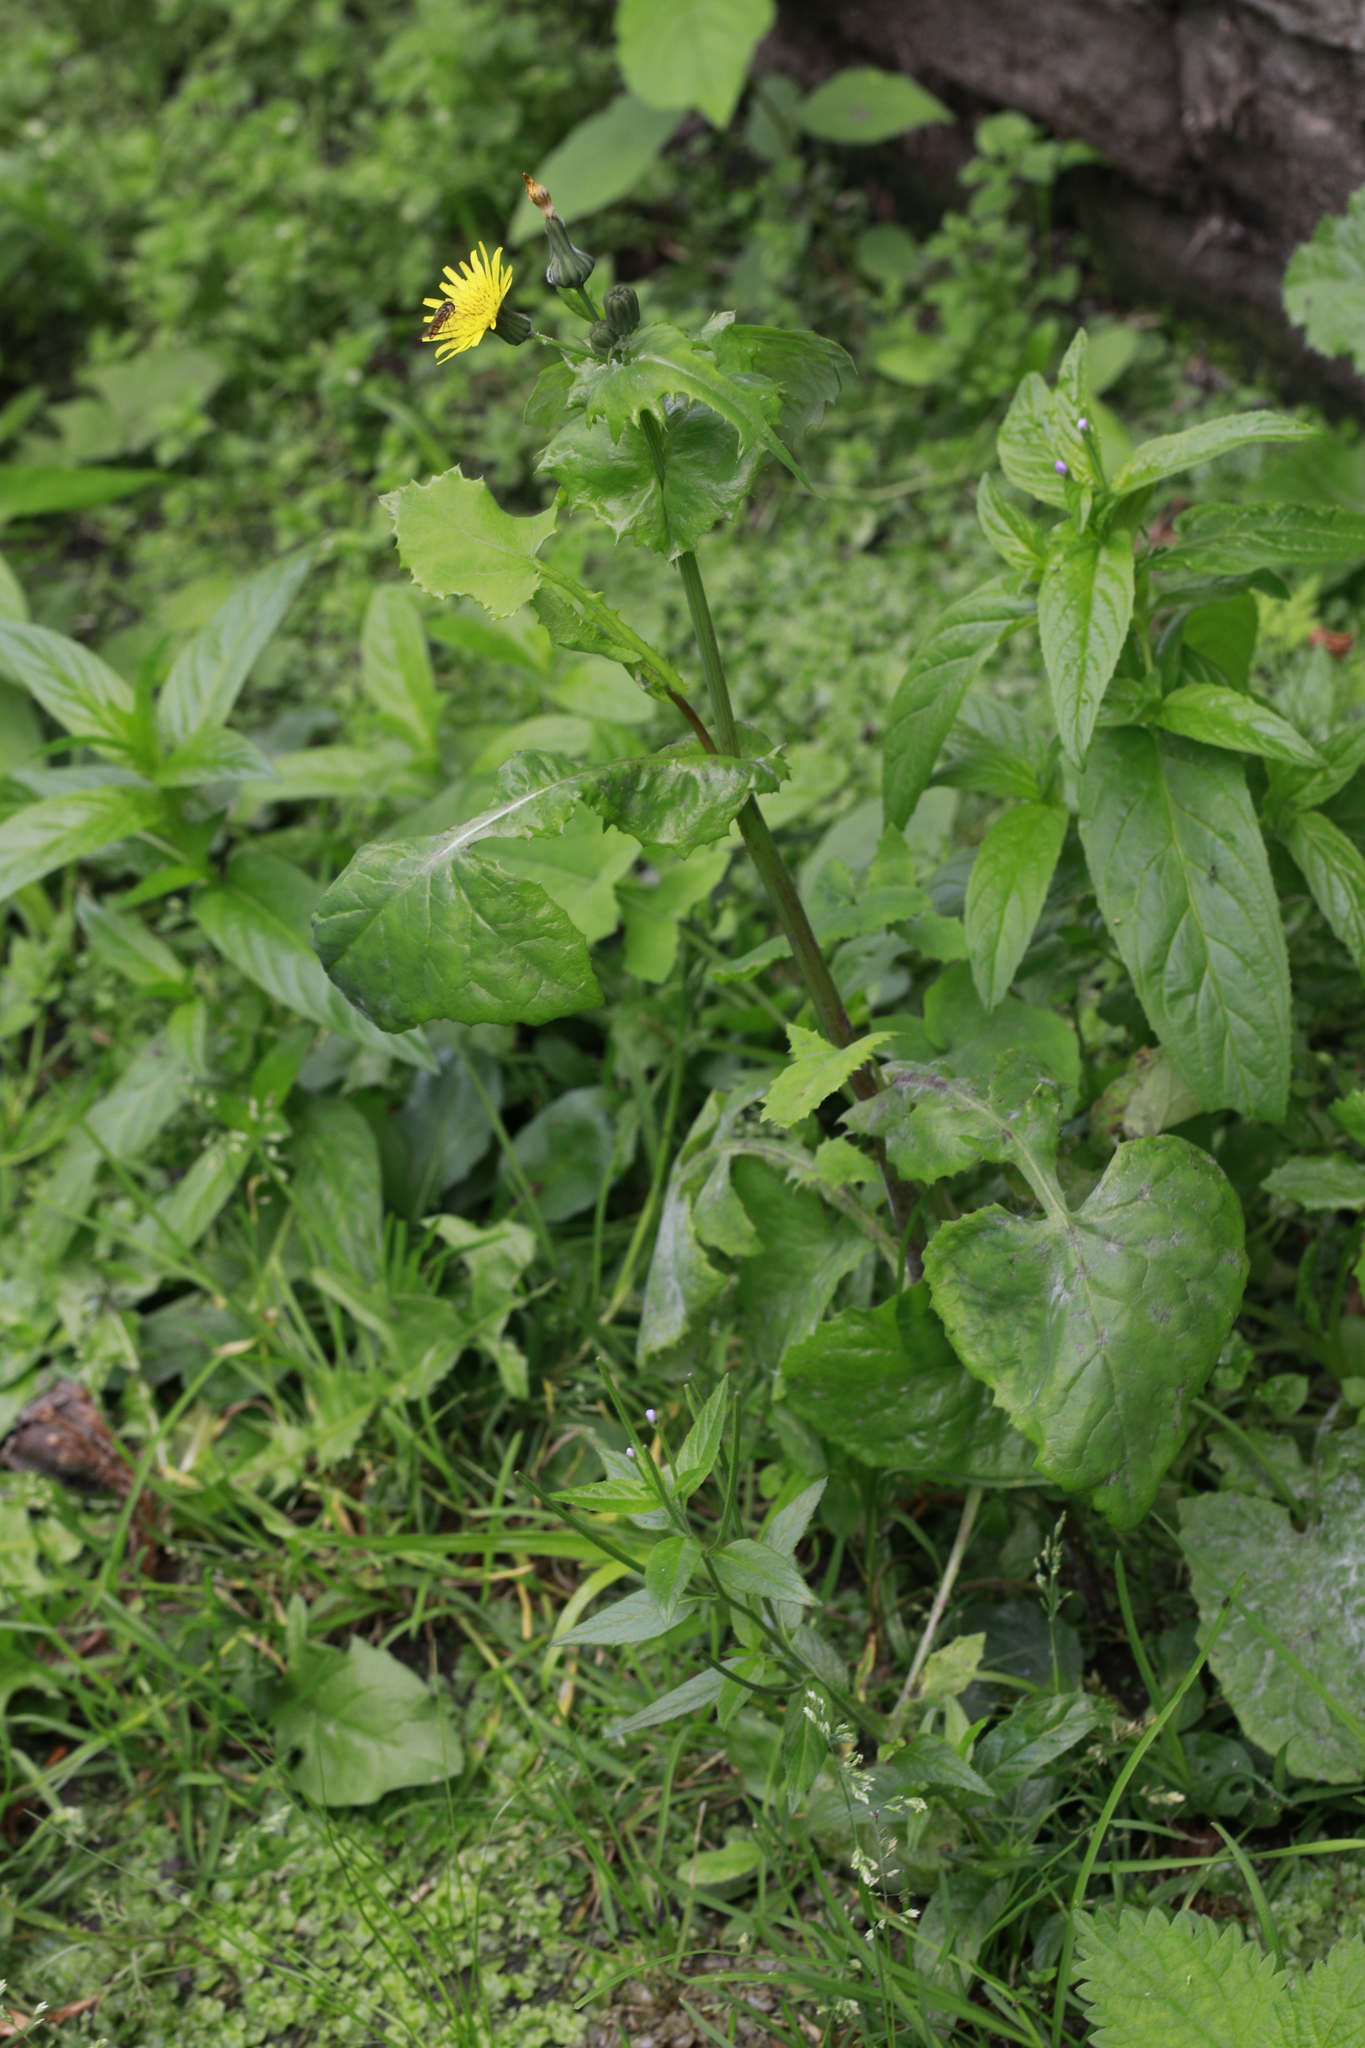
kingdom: Plantae
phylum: Tracheophyta
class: Magnoliopsida
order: Asterales
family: Asteraceae
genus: Sonchus
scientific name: Sonchus oleraceus
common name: Common sowthistle
